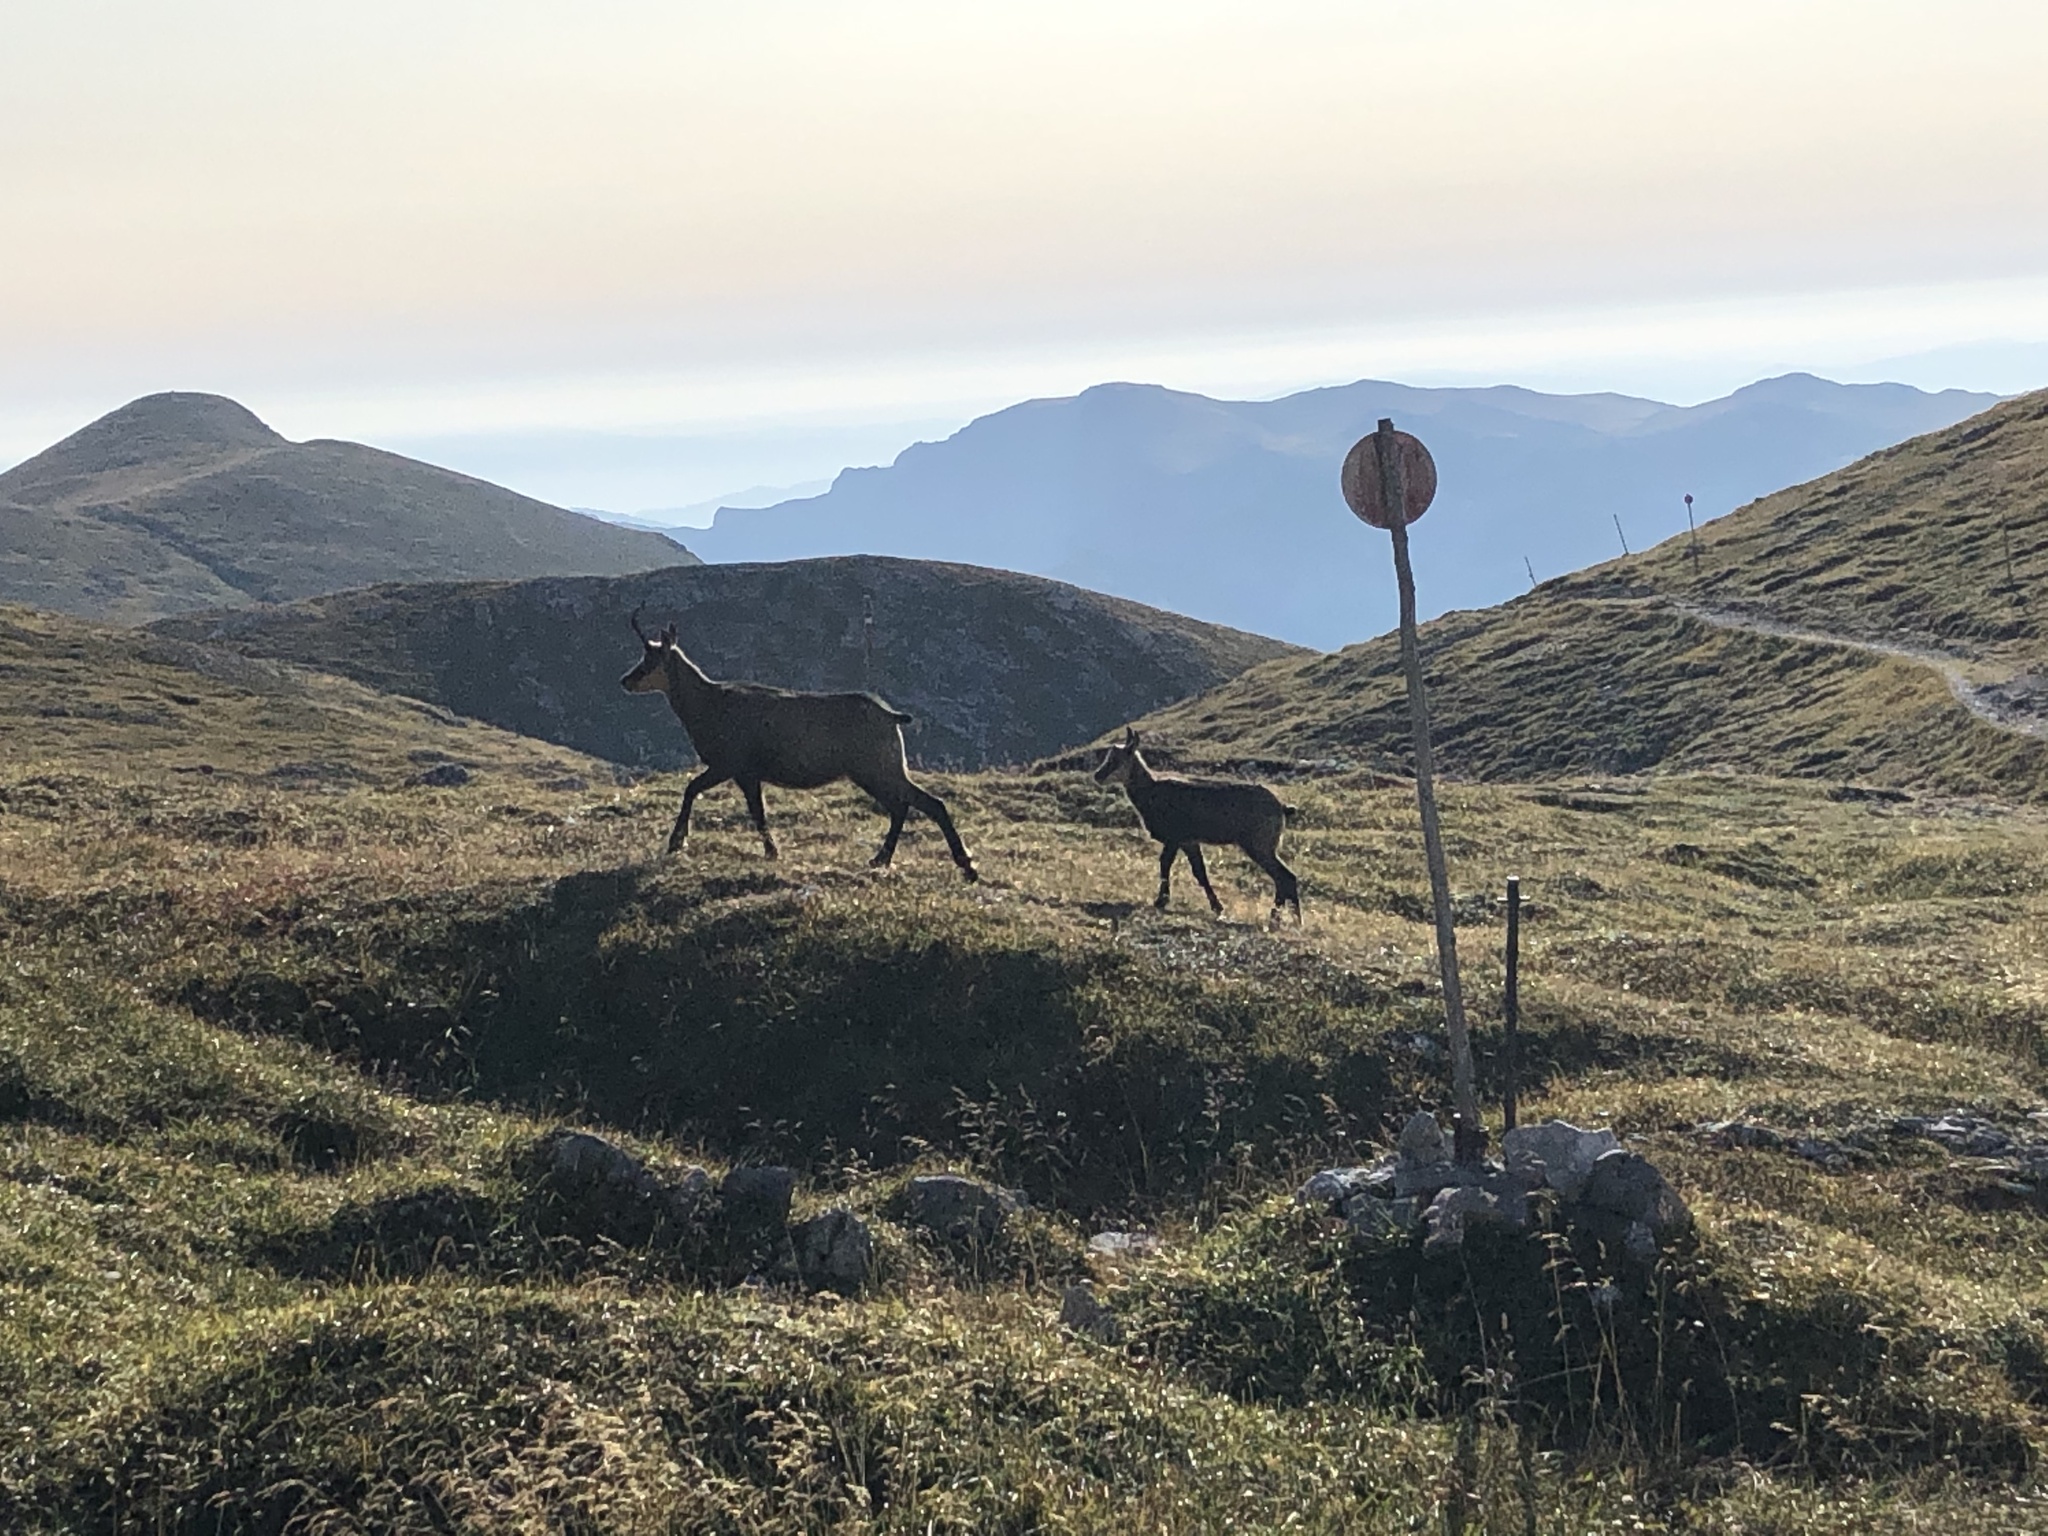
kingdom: Animalia
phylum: Chordata
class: Mammalia
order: Artiodactyla
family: Bovidae
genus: Rupicapra
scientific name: Rupicapra rupicapra
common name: Chamois
